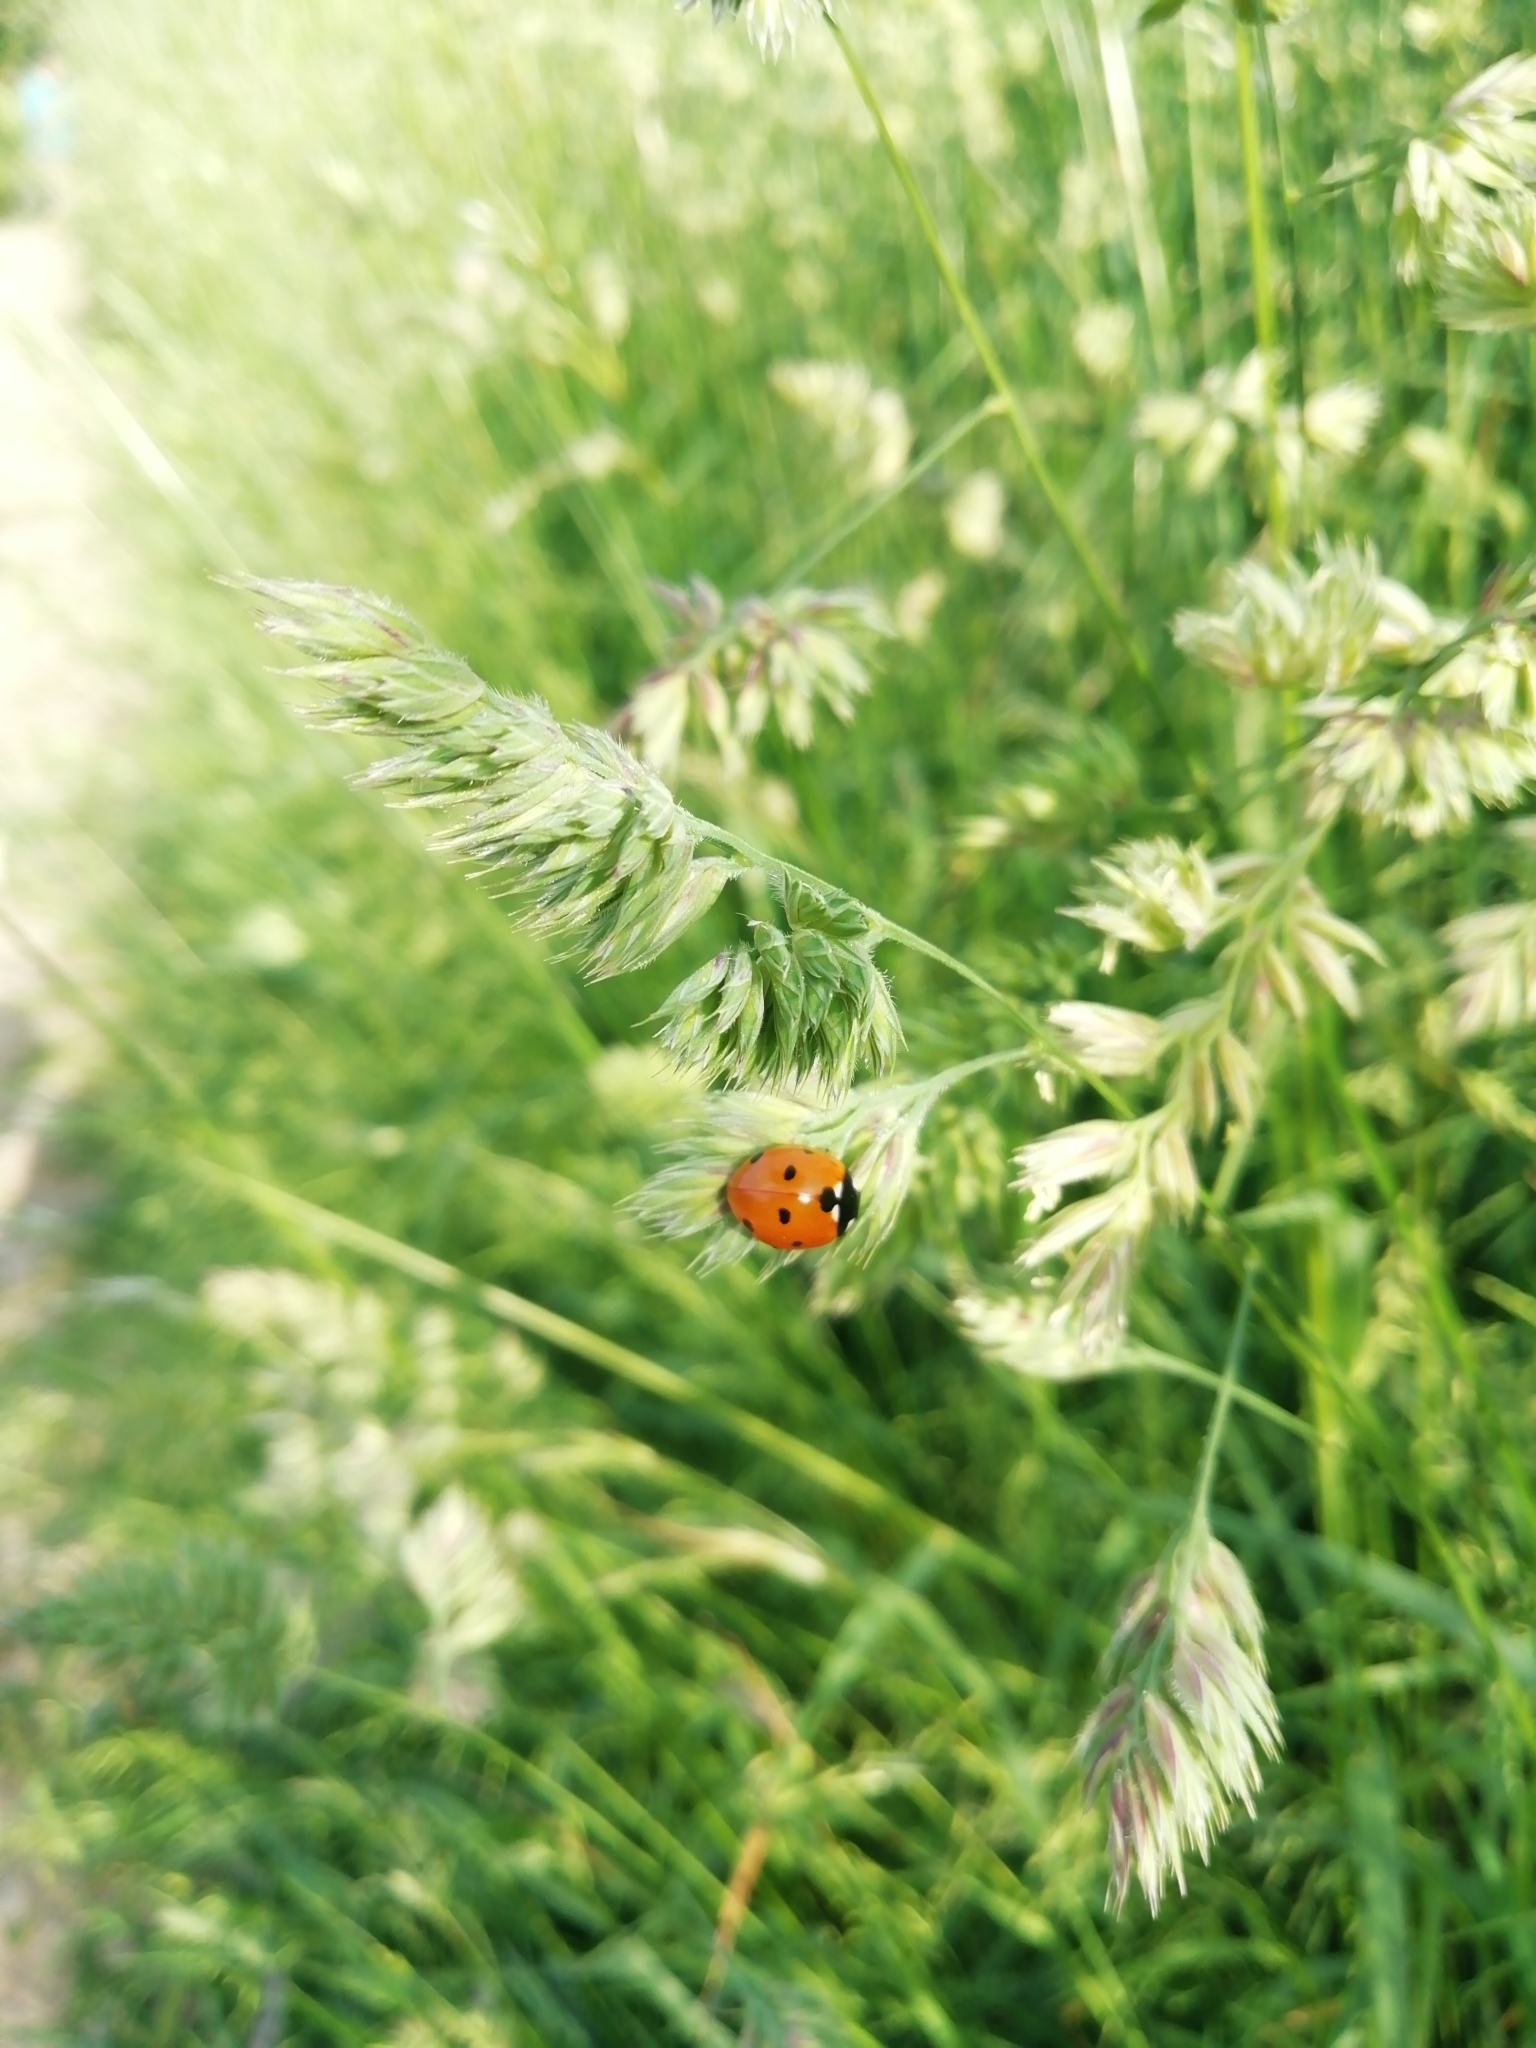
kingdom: Animalia
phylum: Arthropoda
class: Insecta
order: Coleoptera
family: Coccinellidae
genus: Coccinella
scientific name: Coccinella septempunctata
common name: Sevenspotted lady beetle
